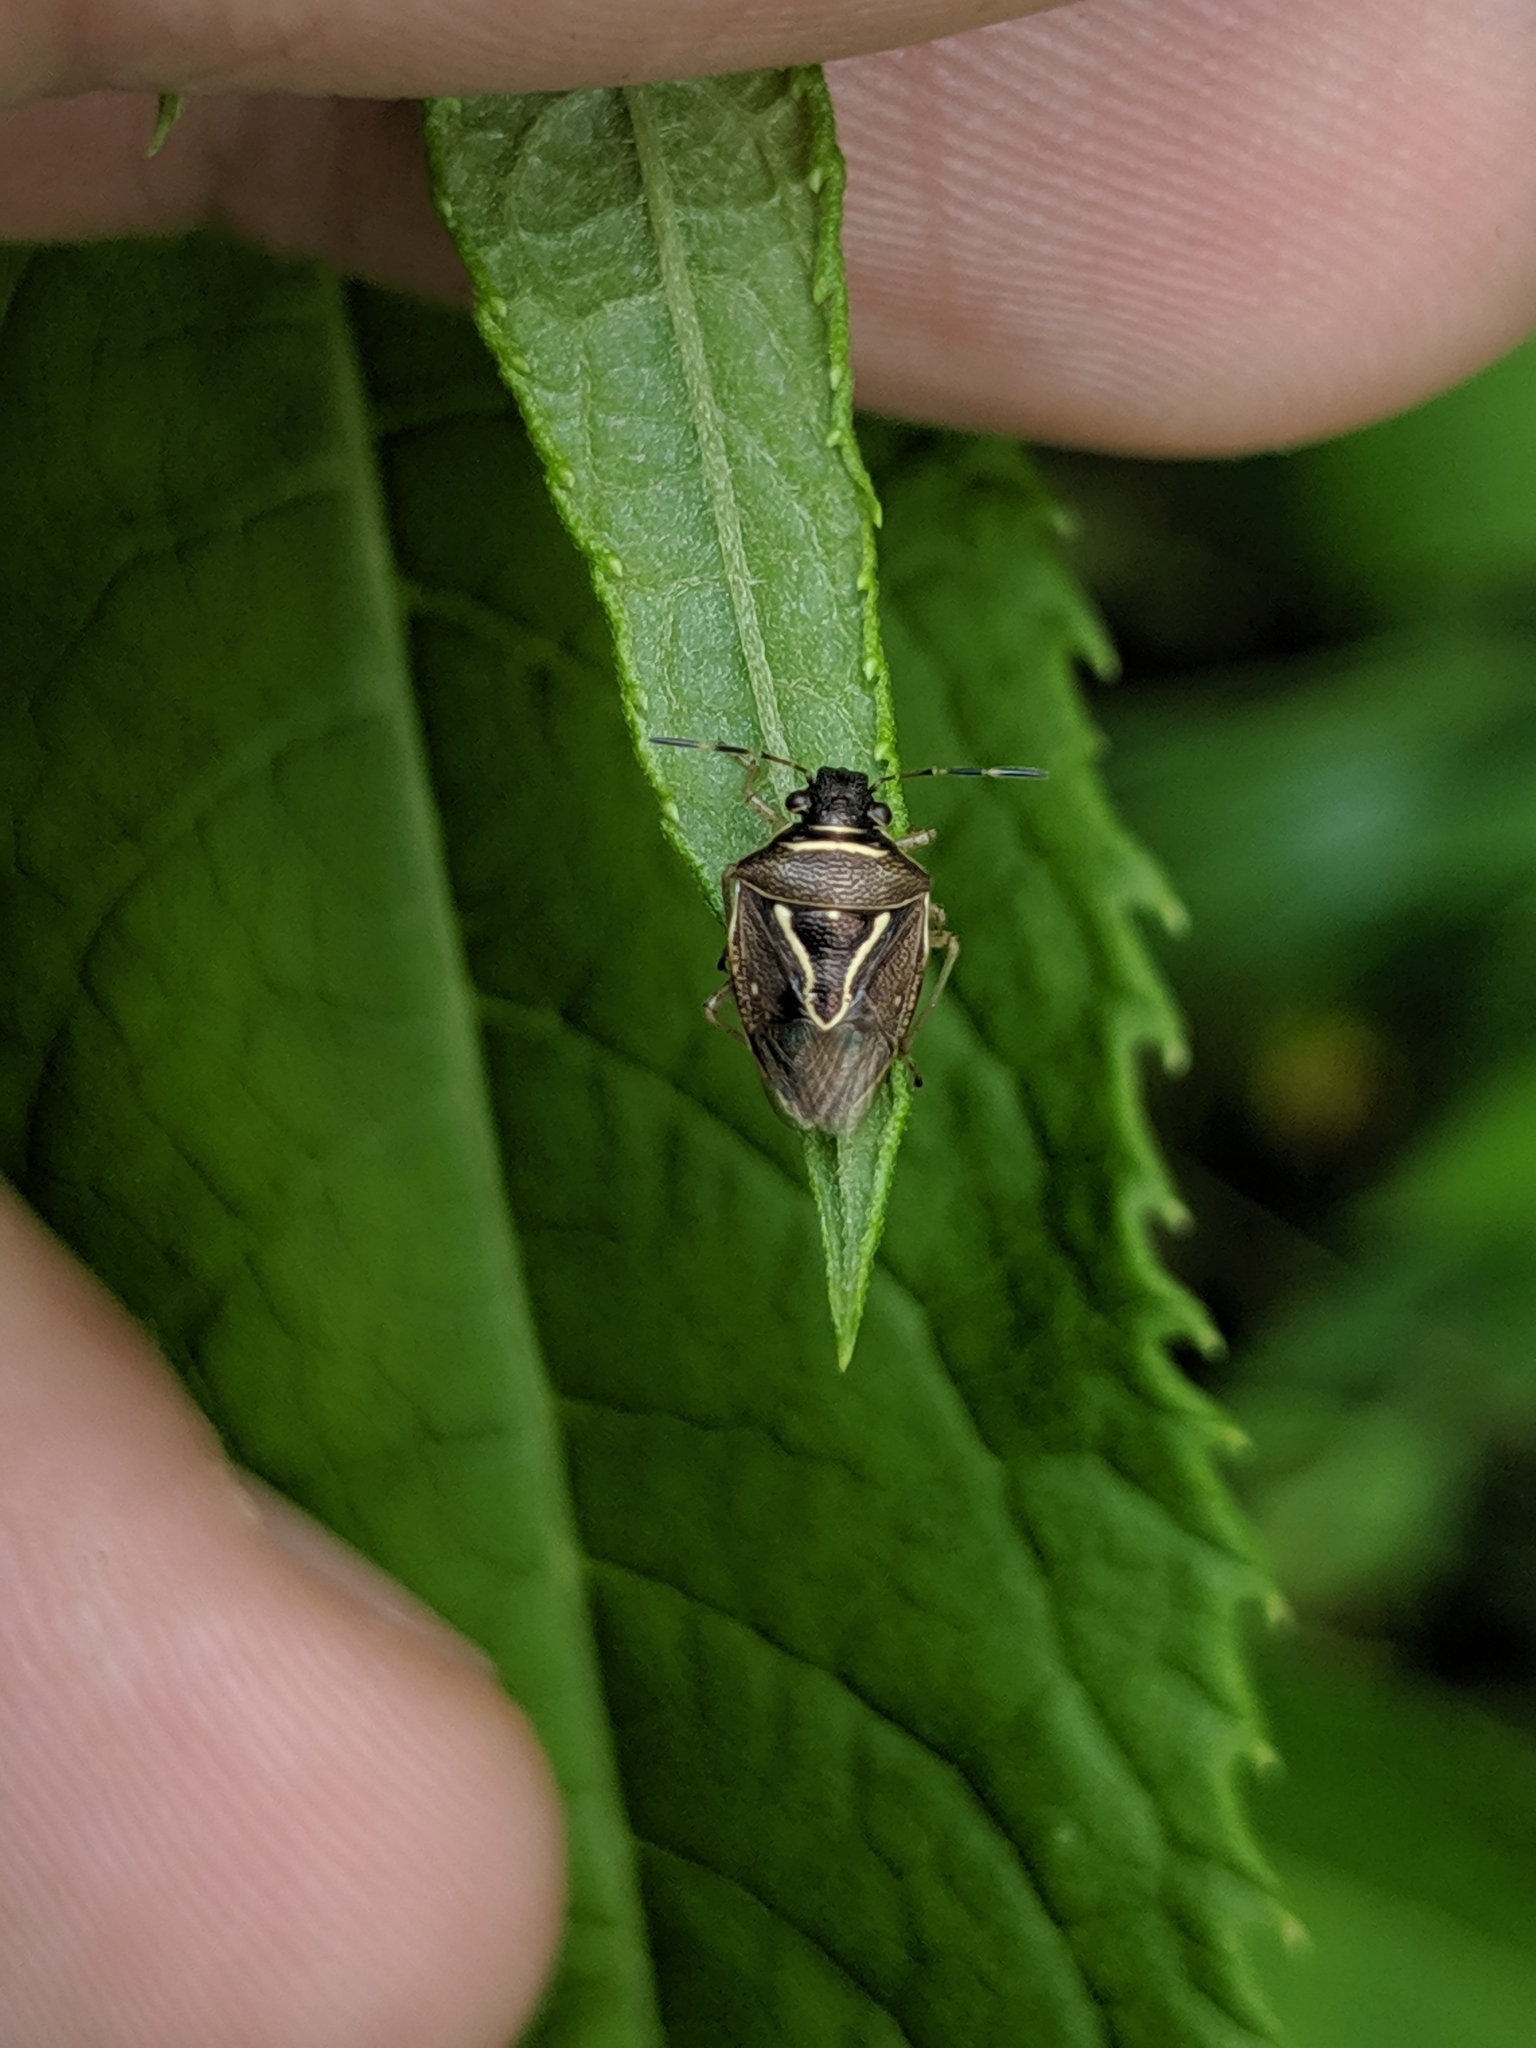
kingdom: Animalia
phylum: Arthropoda
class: Insecta
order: Hemiptera
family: Pentatomidae
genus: Mormidea
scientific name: Mormidea lugens
